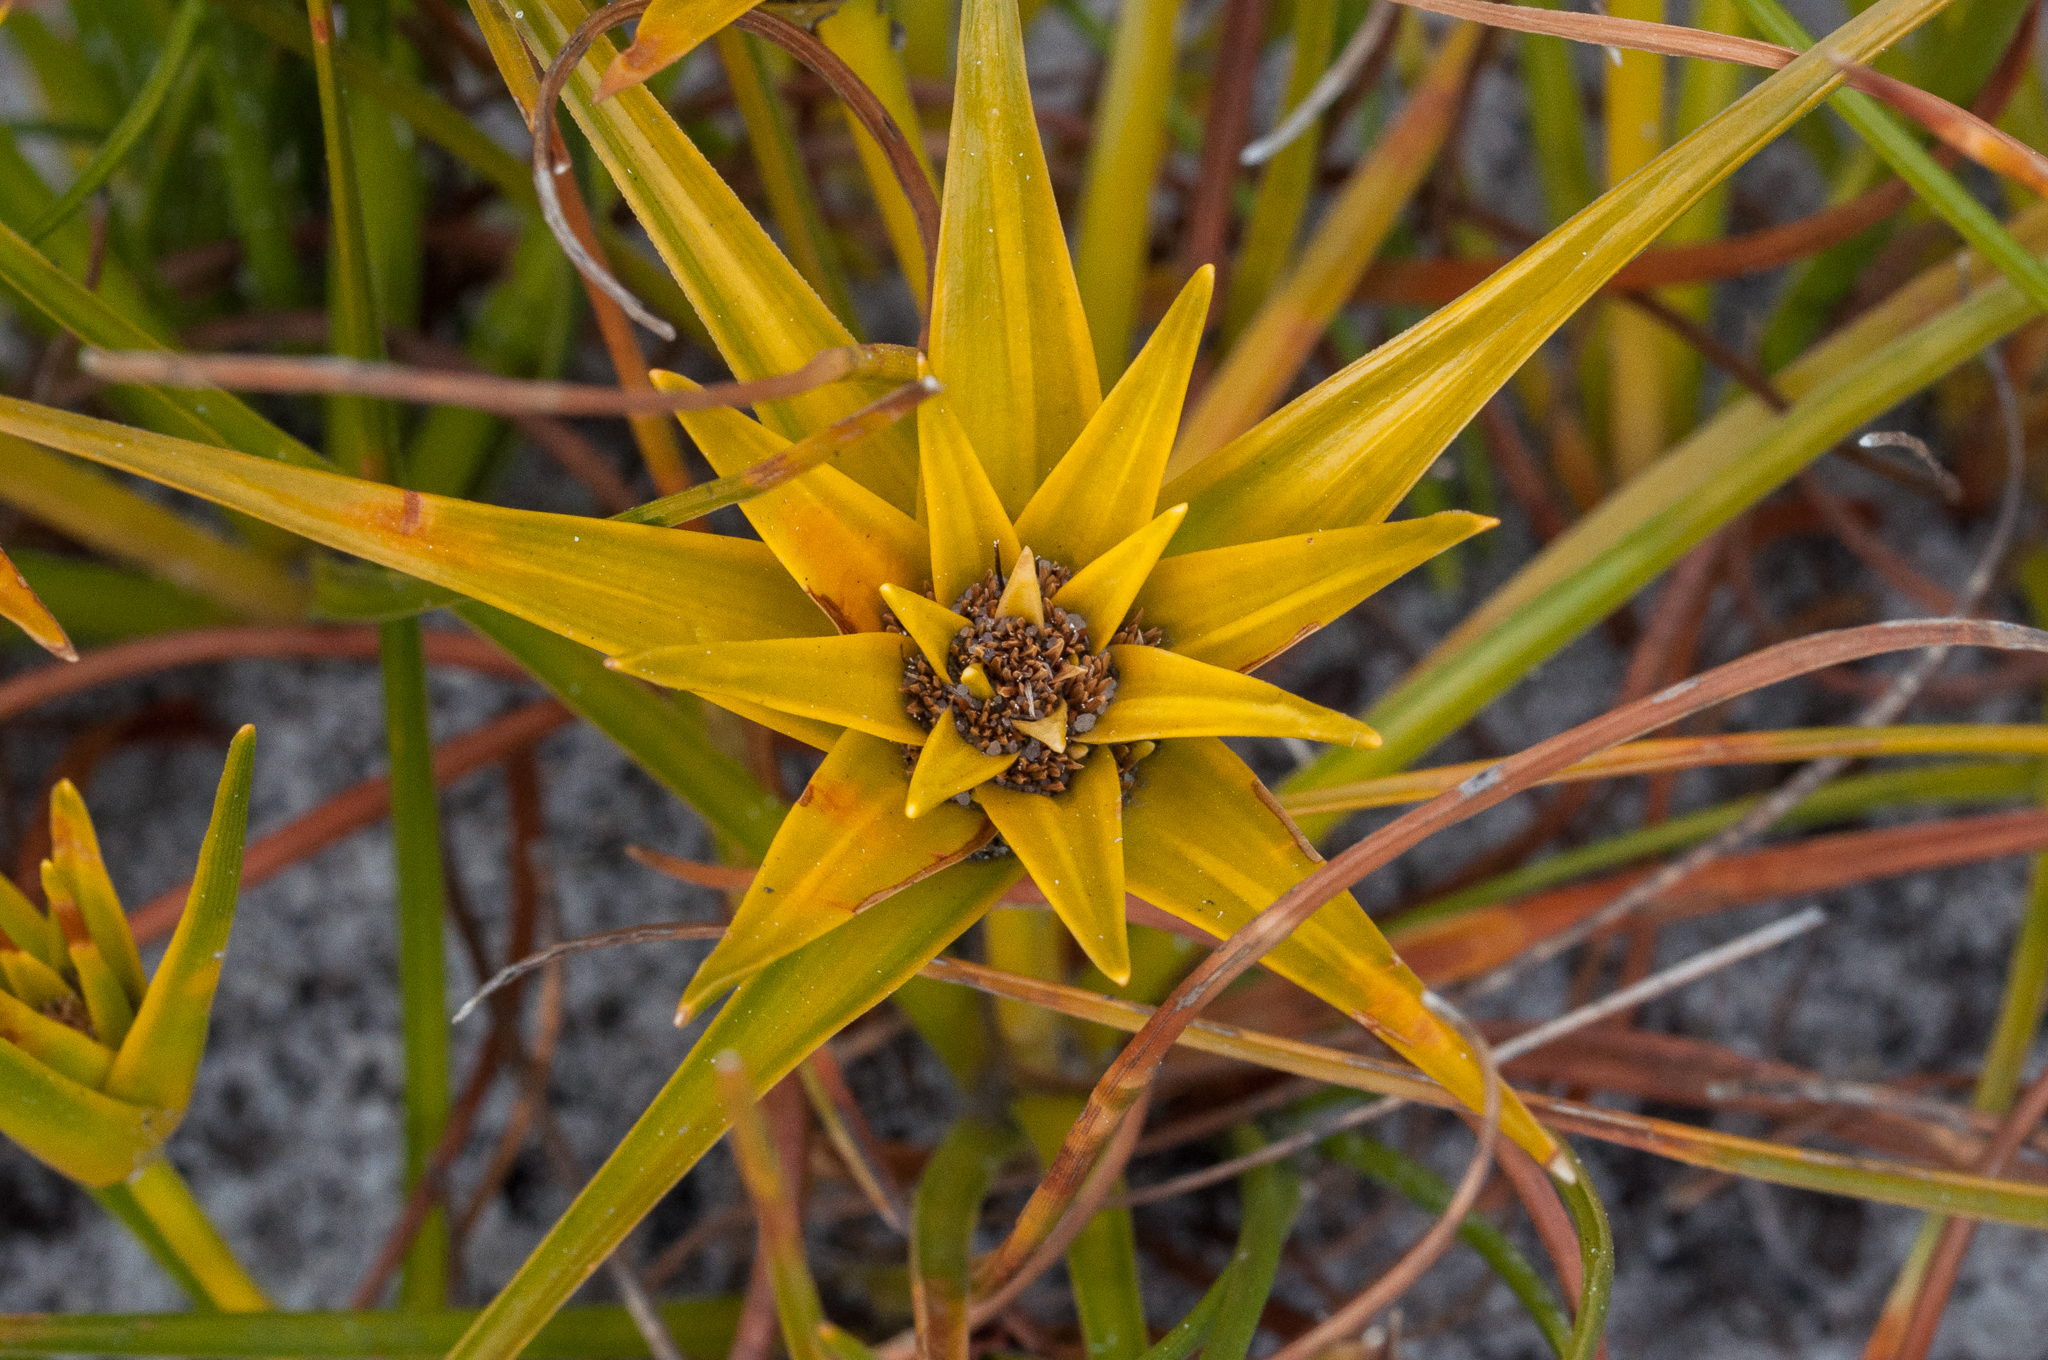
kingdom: Plantae
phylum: Tracheophyta
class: Liliopsida
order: Poales
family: Cyperaceae
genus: Ficinia
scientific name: Ficinia radiata
